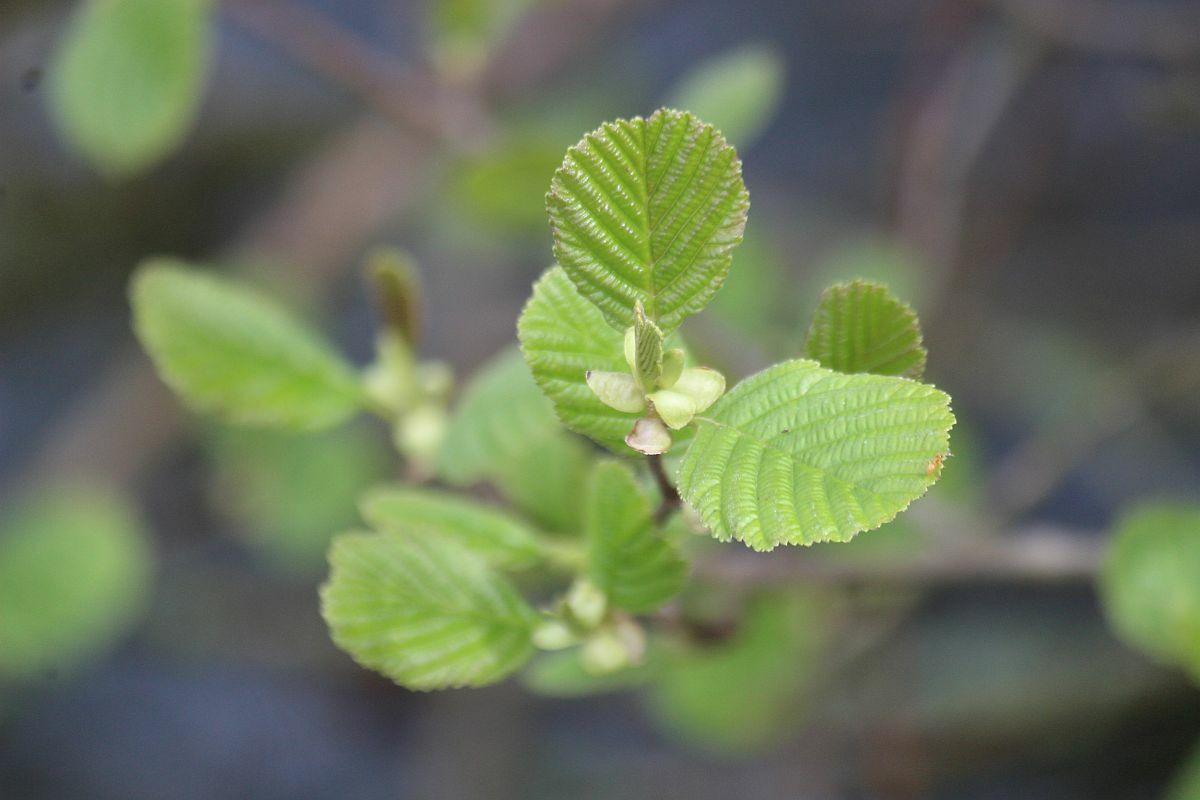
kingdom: Plantae
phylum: Tracheophyta
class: Magnoliopsida
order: Fagales
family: Betulaceae
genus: Alnus
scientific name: Alnus glutinosa
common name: Black alder
